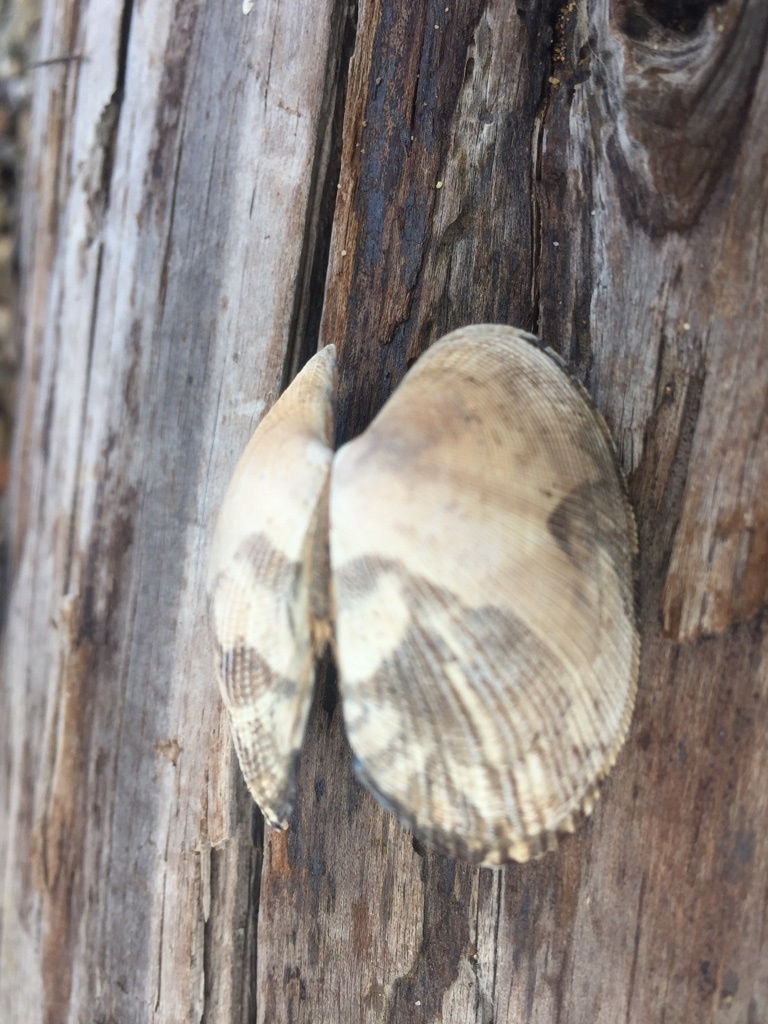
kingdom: Animalia
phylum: Mollusca
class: Bivalvia
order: Venerida
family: Veneridae
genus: Ruditapes
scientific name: Ruditapes philippinarum
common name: Manila clam
